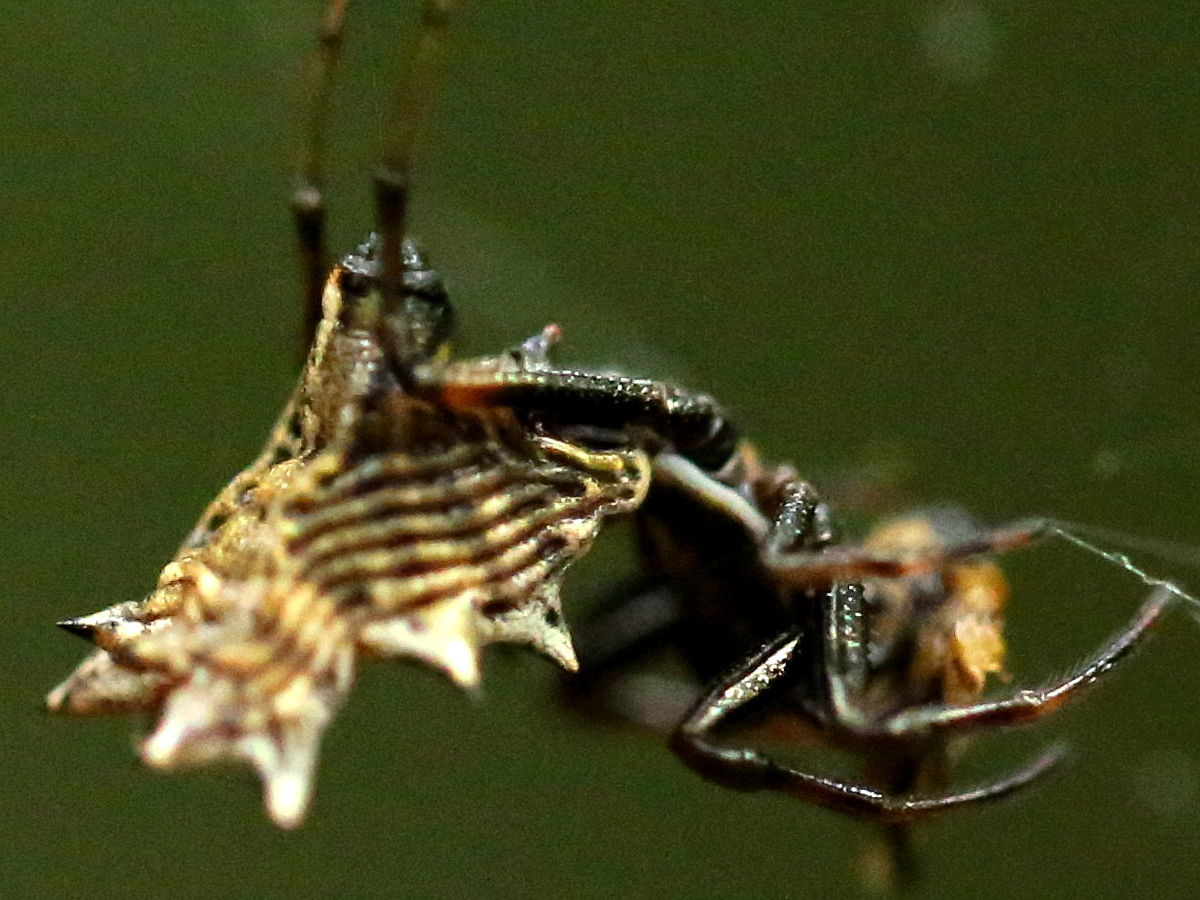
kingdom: Animalia
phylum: Arthropoda
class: Arachnida
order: Araneae
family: Araneidae
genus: Micrathena
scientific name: Micrathena gracilis
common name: Orb weavers
